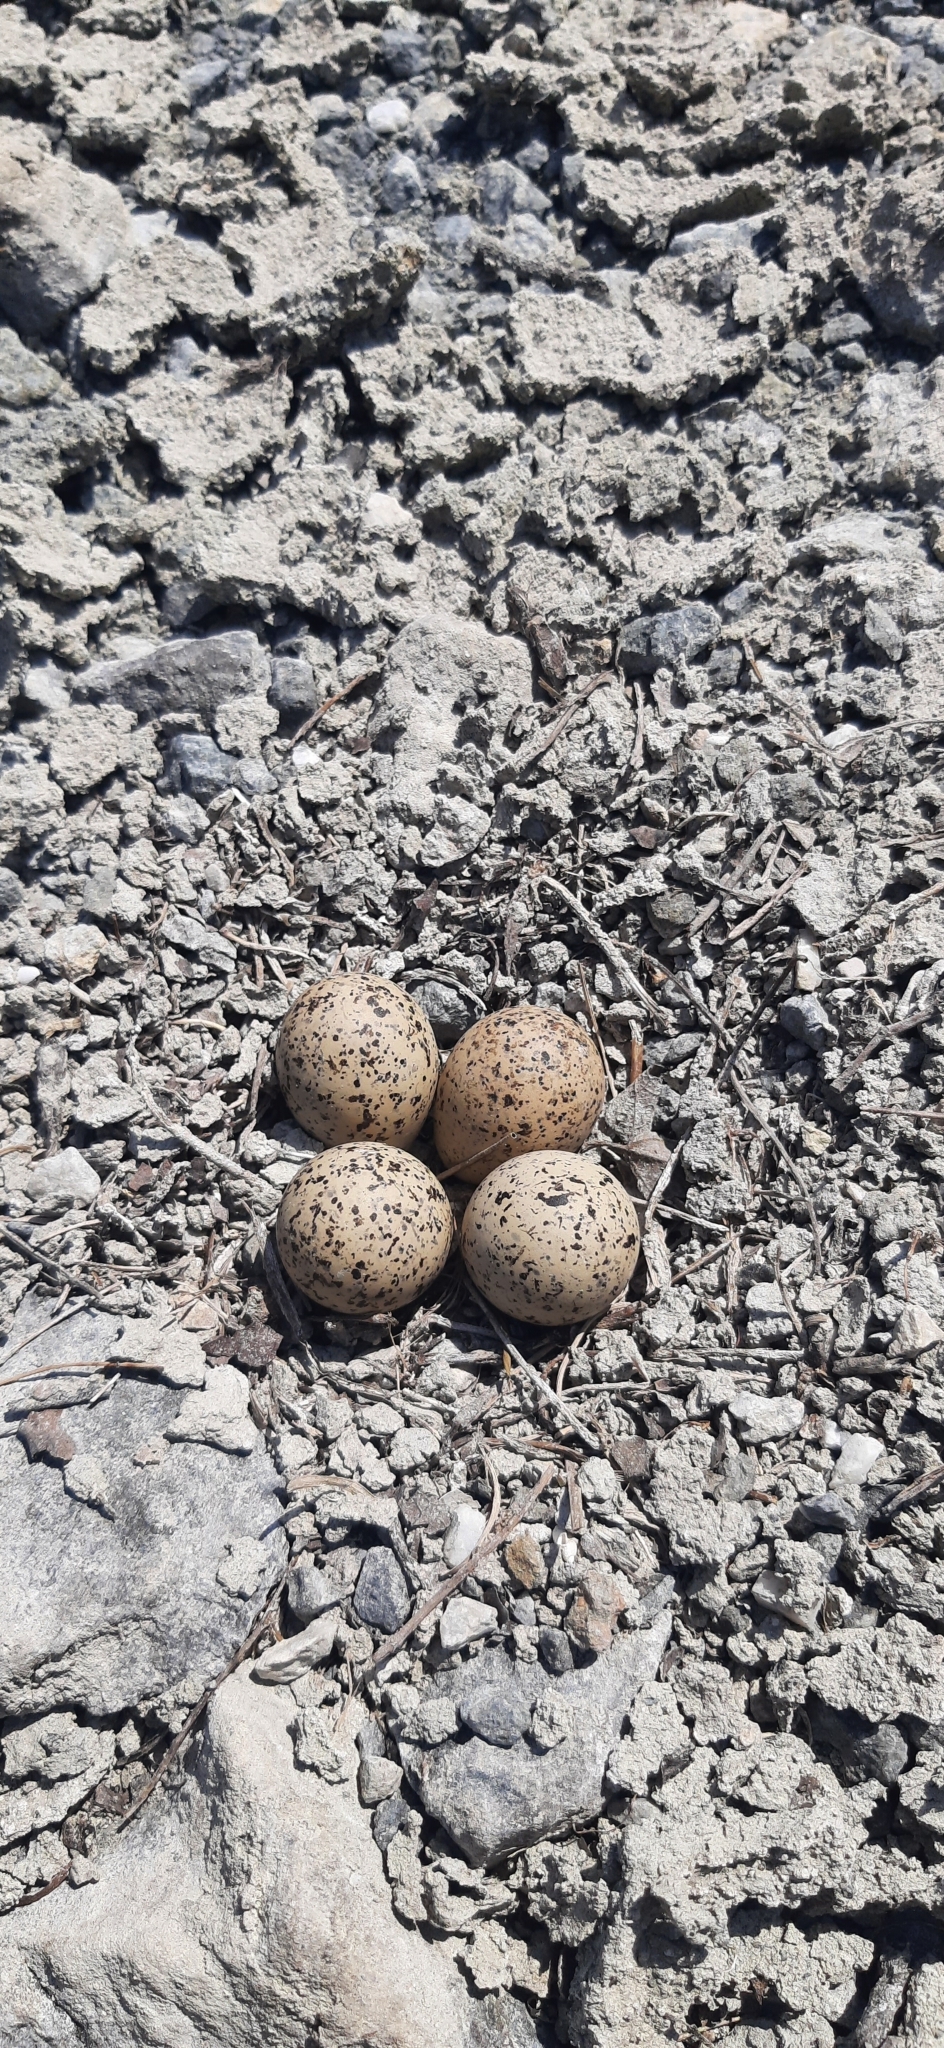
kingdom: Animalia
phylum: Chordata
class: Aves
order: Charadriiformes
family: Charadriidae
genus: Charadrius
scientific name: Charadrius dubius
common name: Little ringed plover
